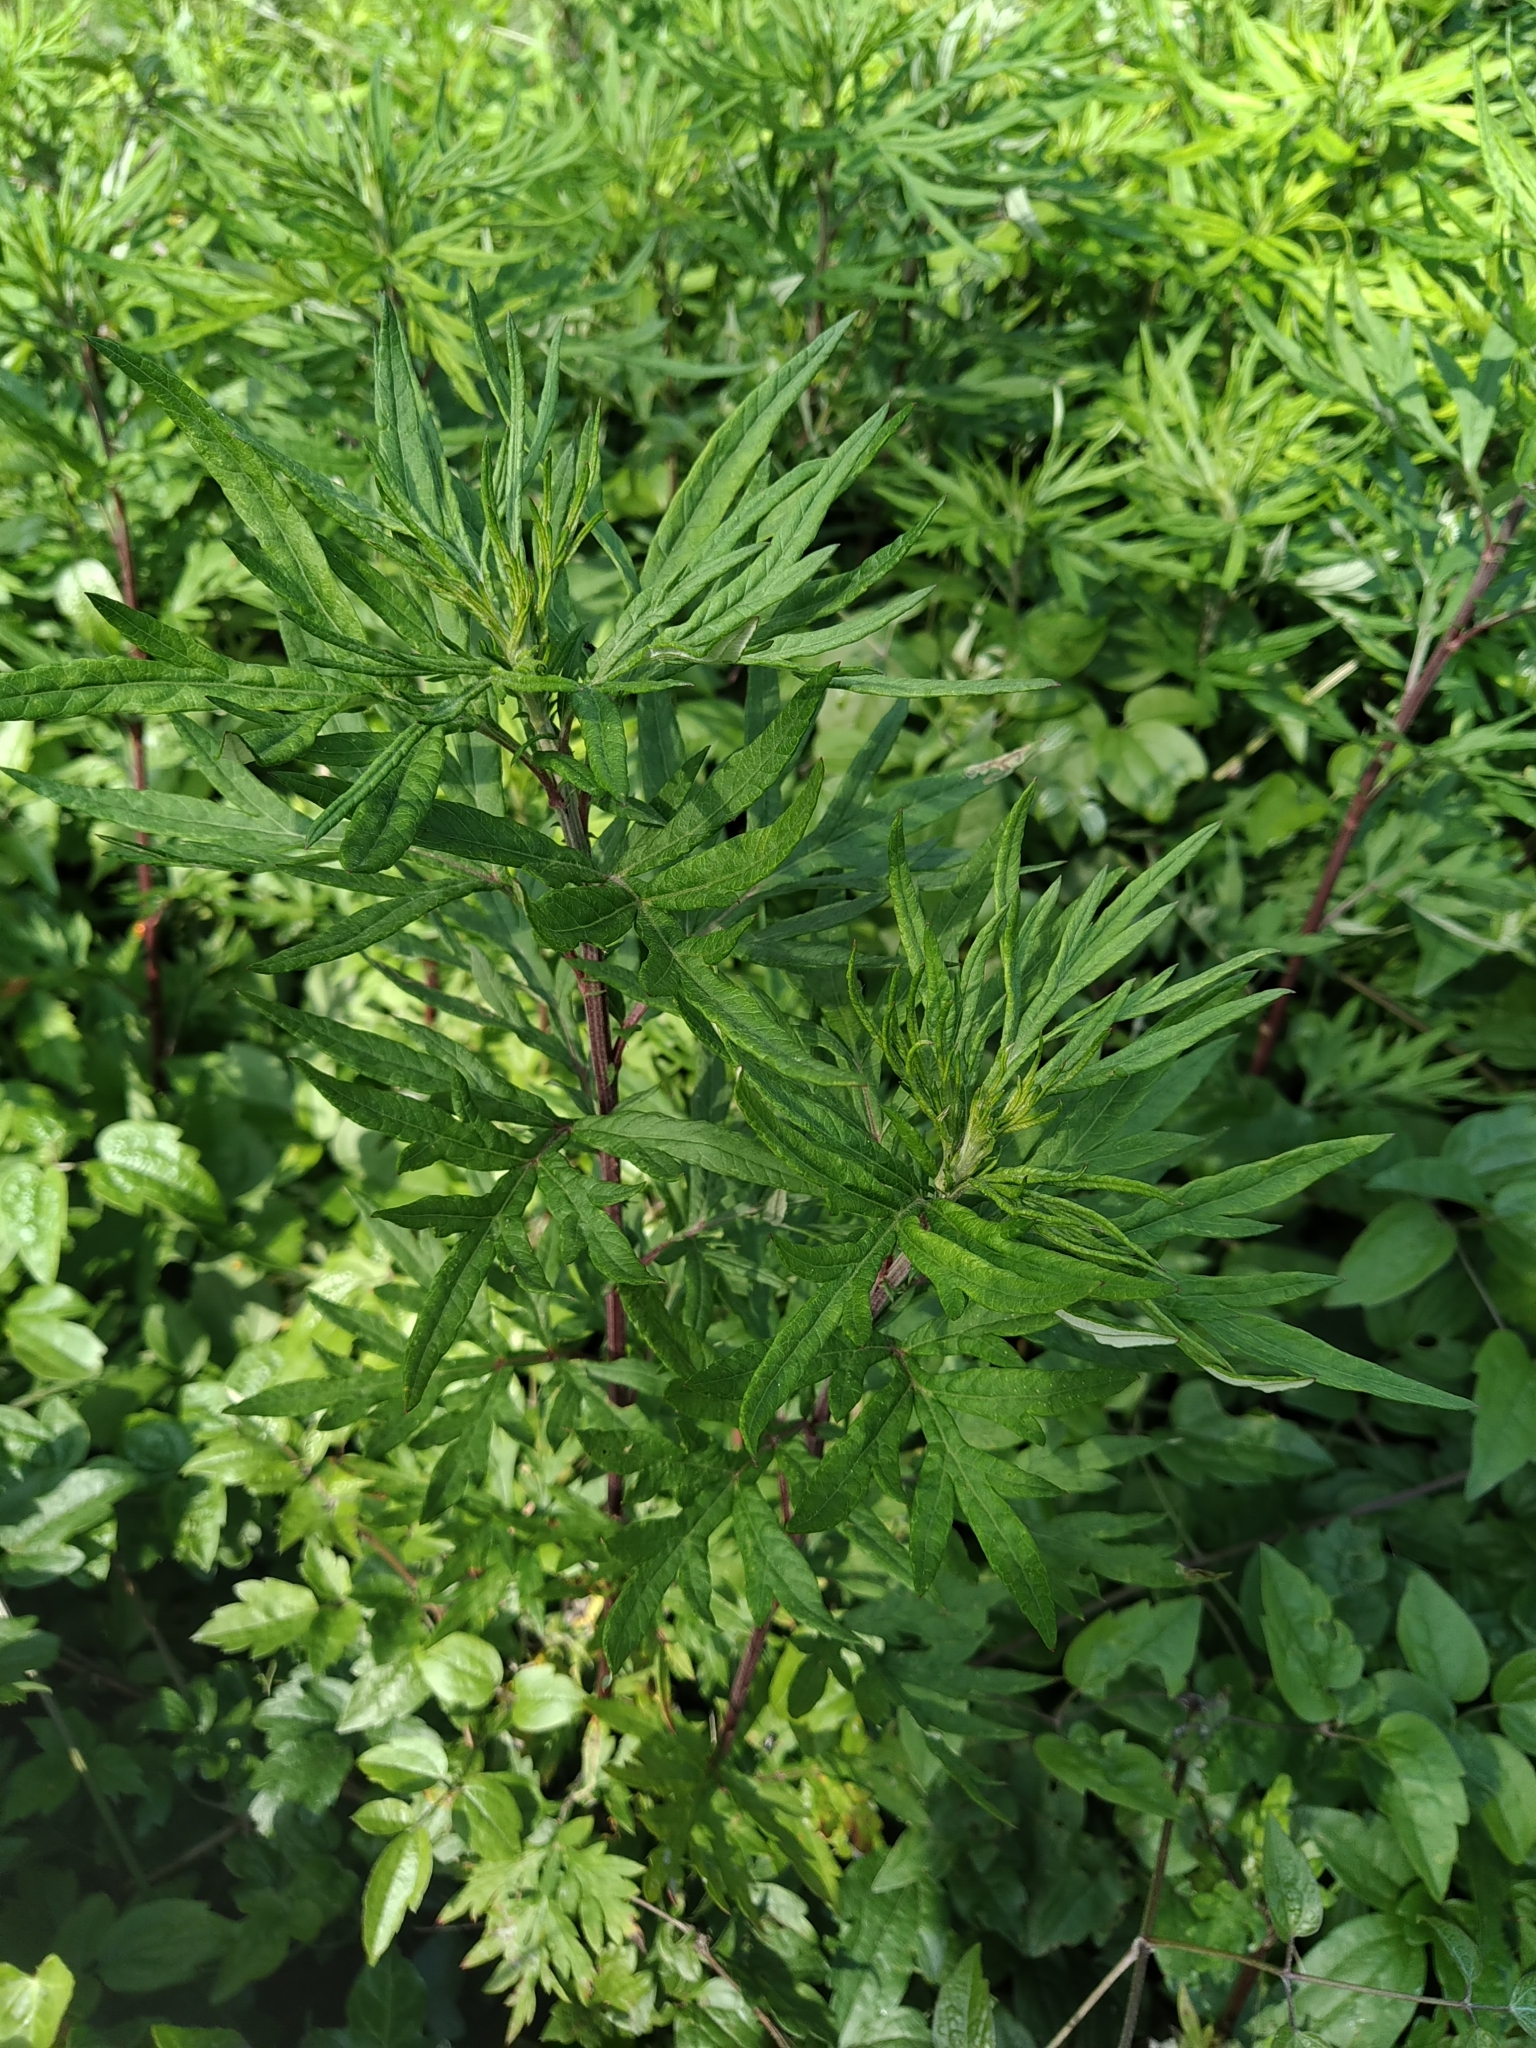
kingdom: Plantae
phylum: Tracheophyta
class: Magnoliopsida
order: Asterales
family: Asteraceae
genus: Artemisia
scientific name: Artemisia verlotiorum
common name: Chinese mugwort
